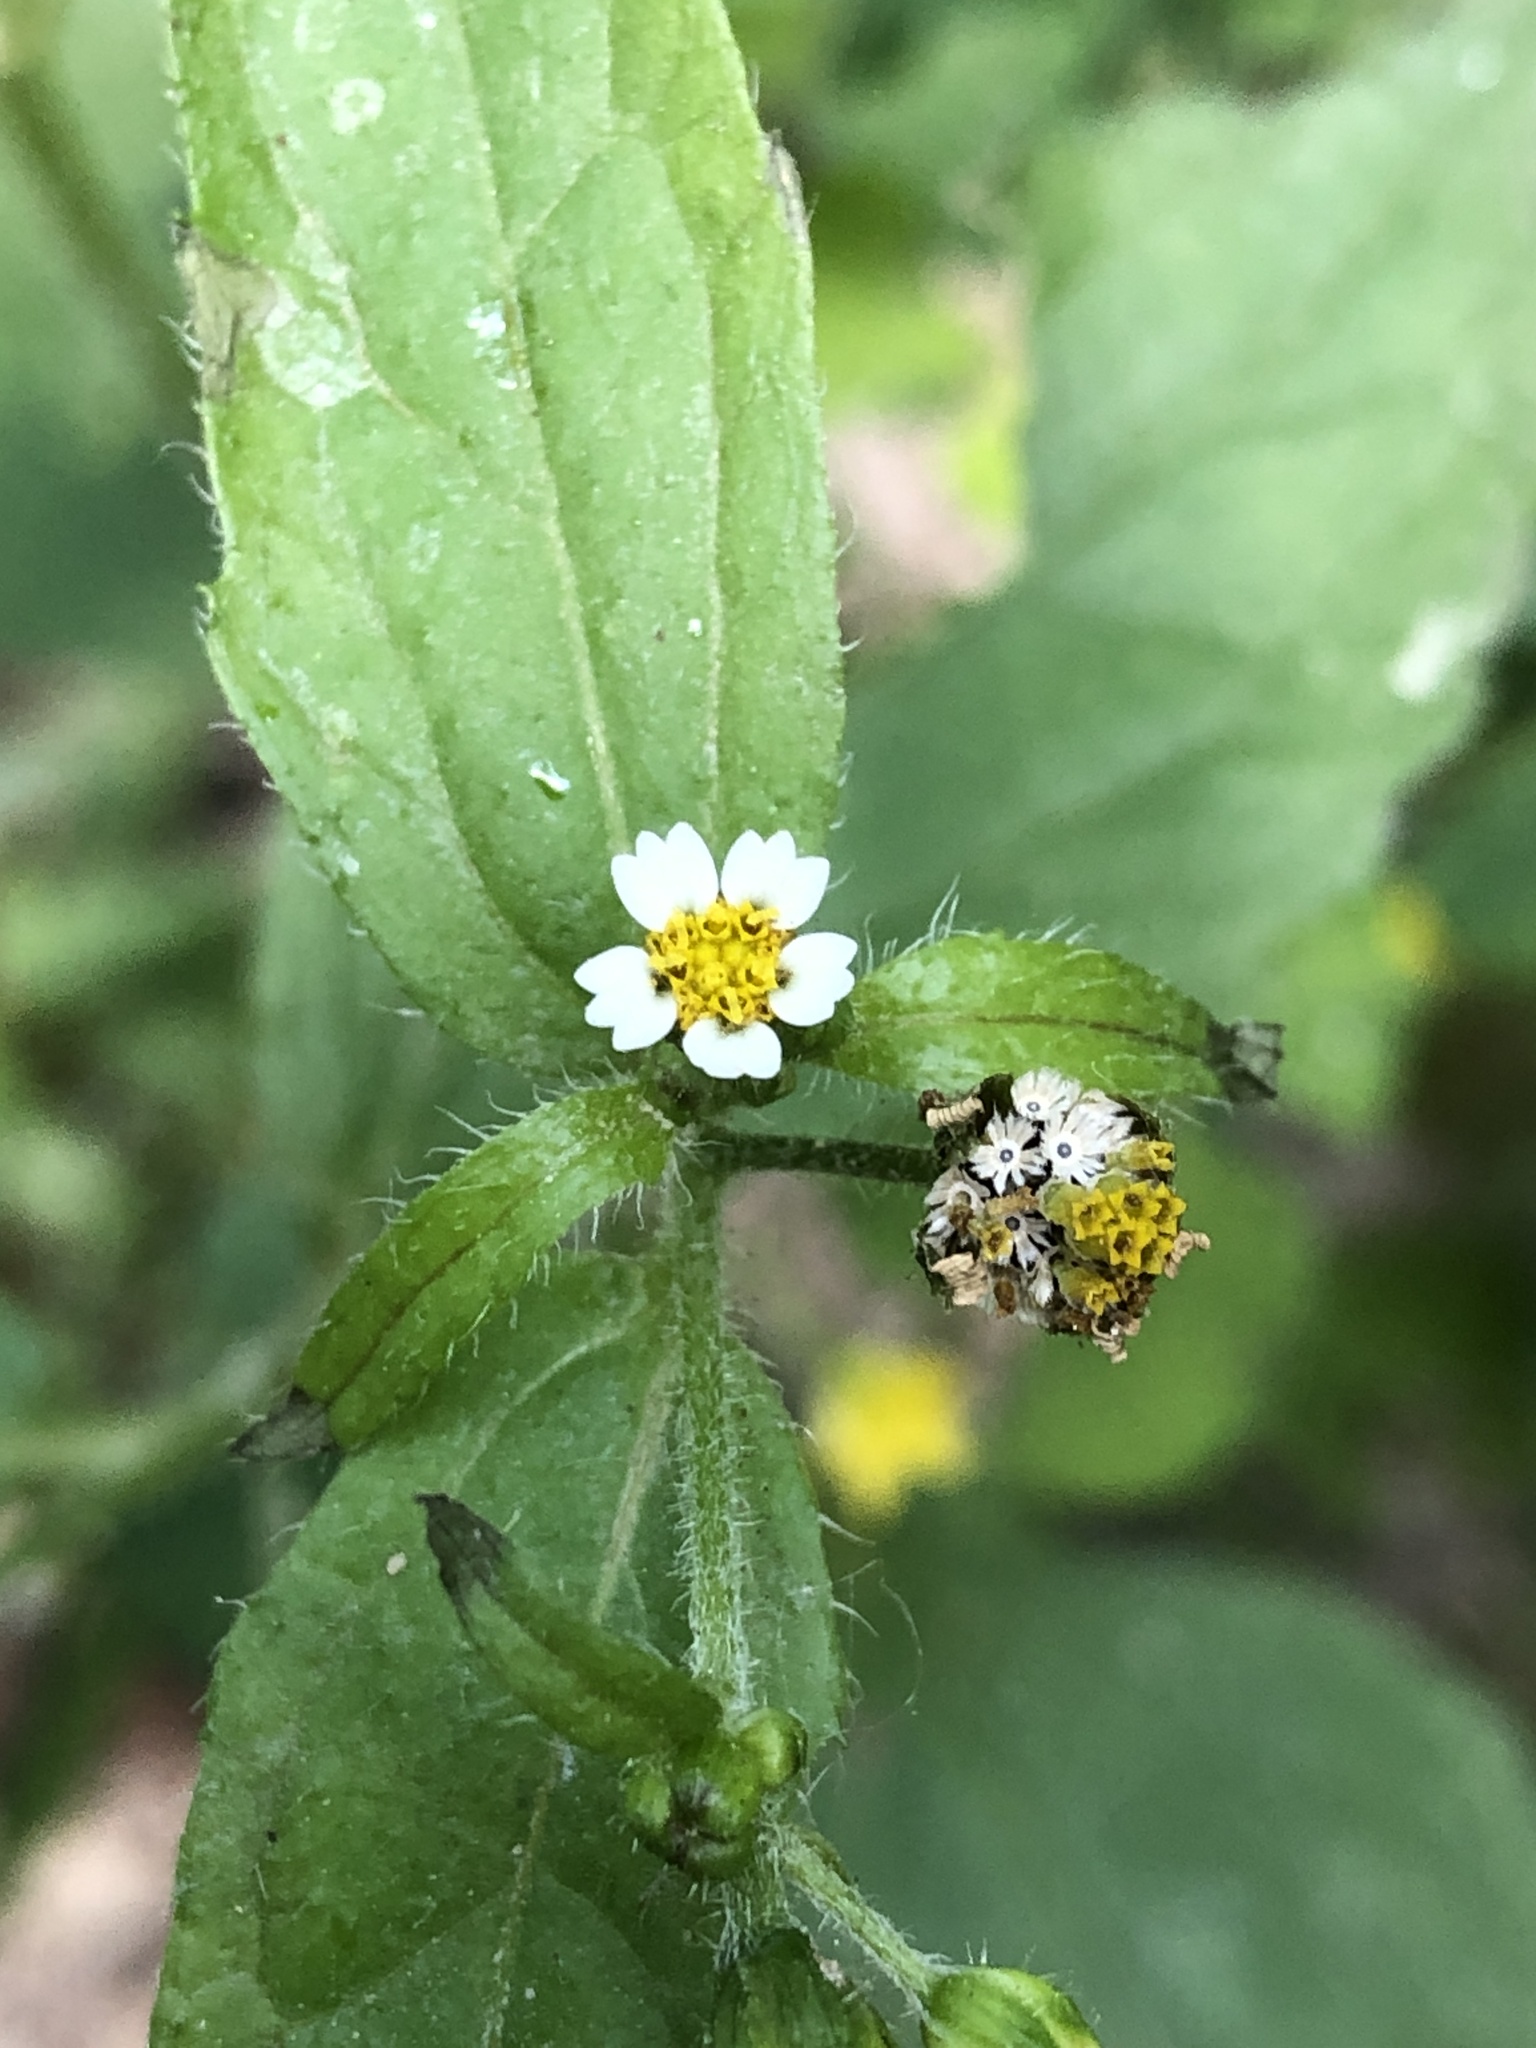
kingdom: Plantae
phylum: Tracheophyta
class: Magnoliopsida
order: Asterales
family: Asteraceae
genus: Galinsoga
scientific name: Galinsoga quadriradiata
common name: Shaggy soldier
